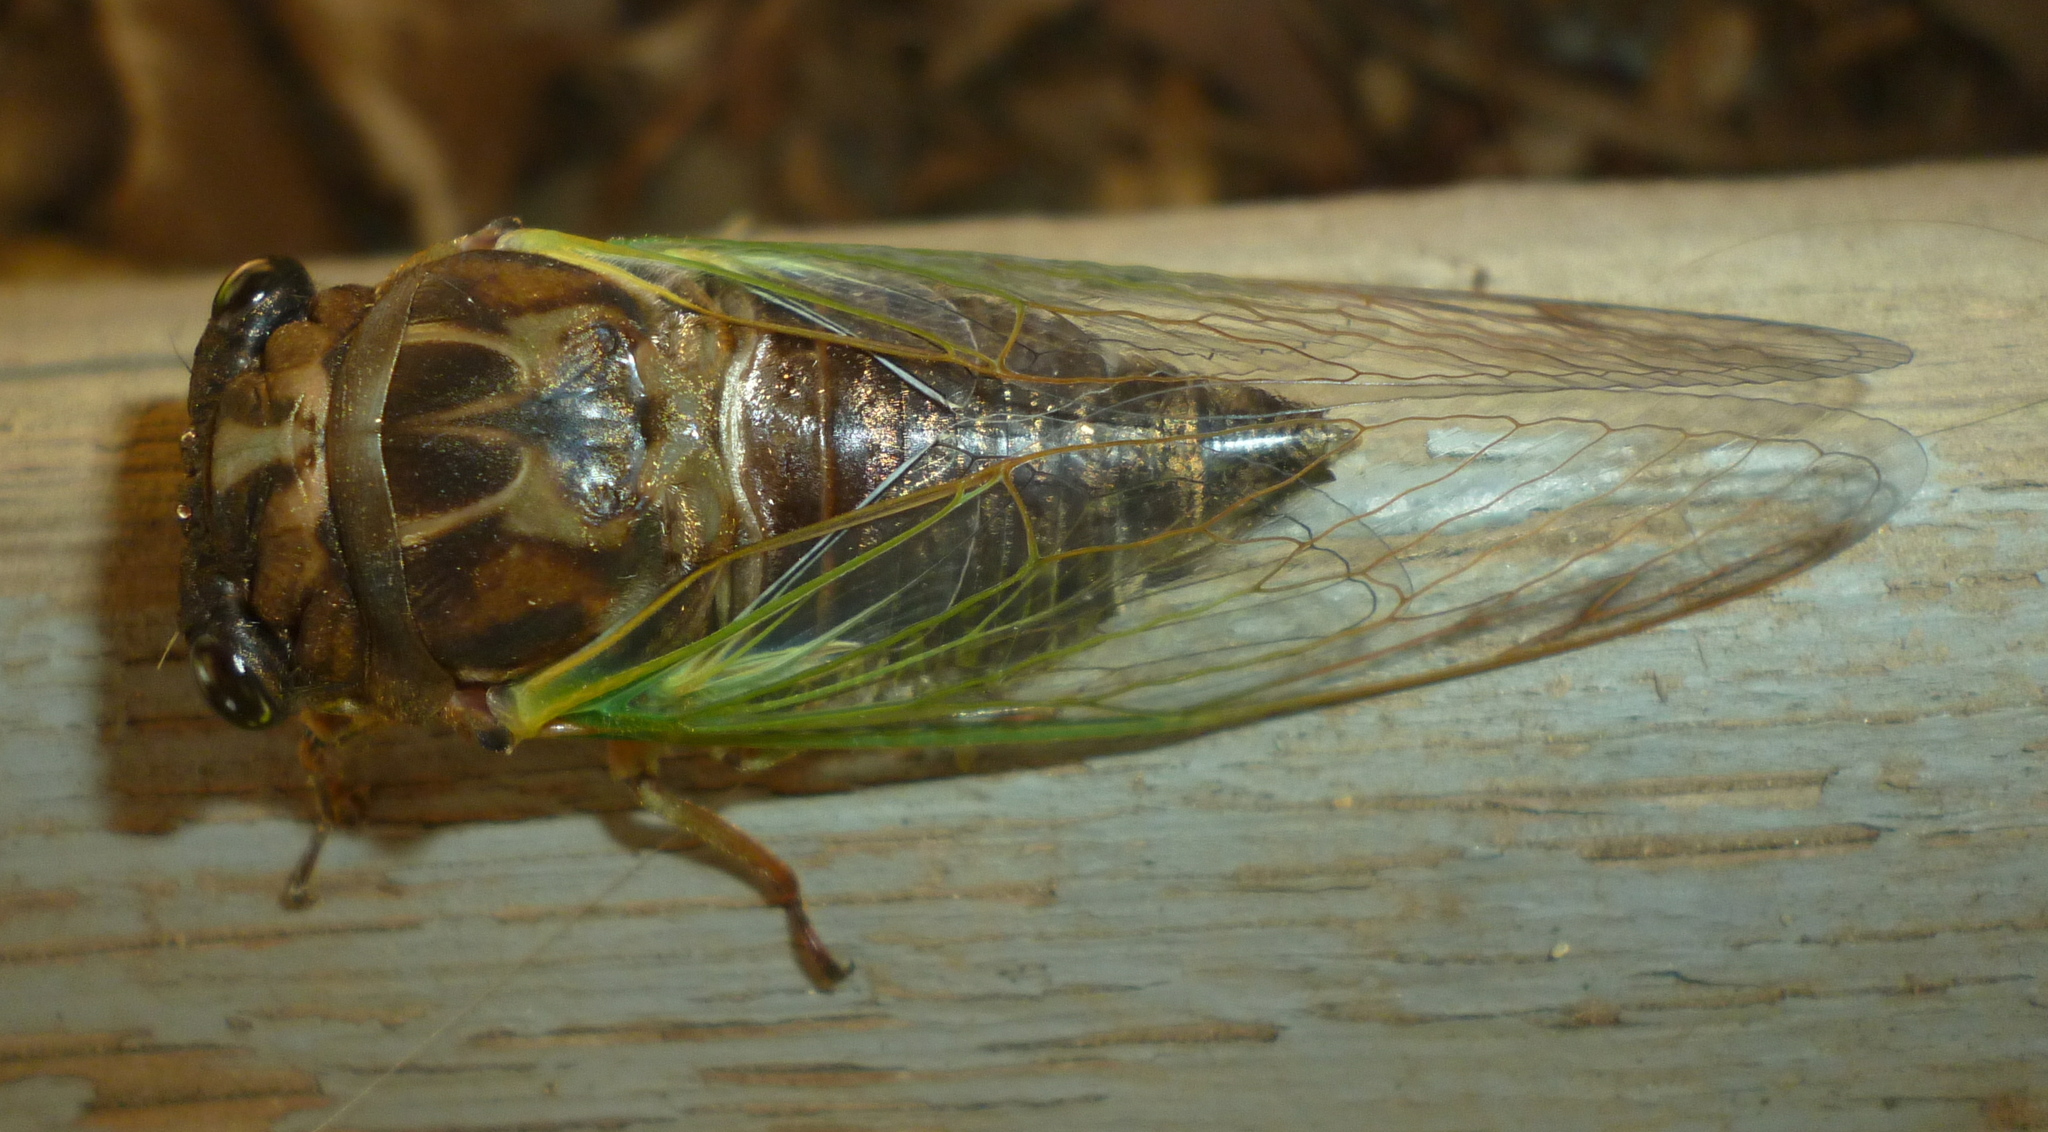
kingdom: Animalia
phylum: Arthropoda
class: Insecta
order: Hemiptera
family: Cicadidae
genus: Neotibicen
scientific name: Neotibicen lyricen
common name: Lyric cicada
